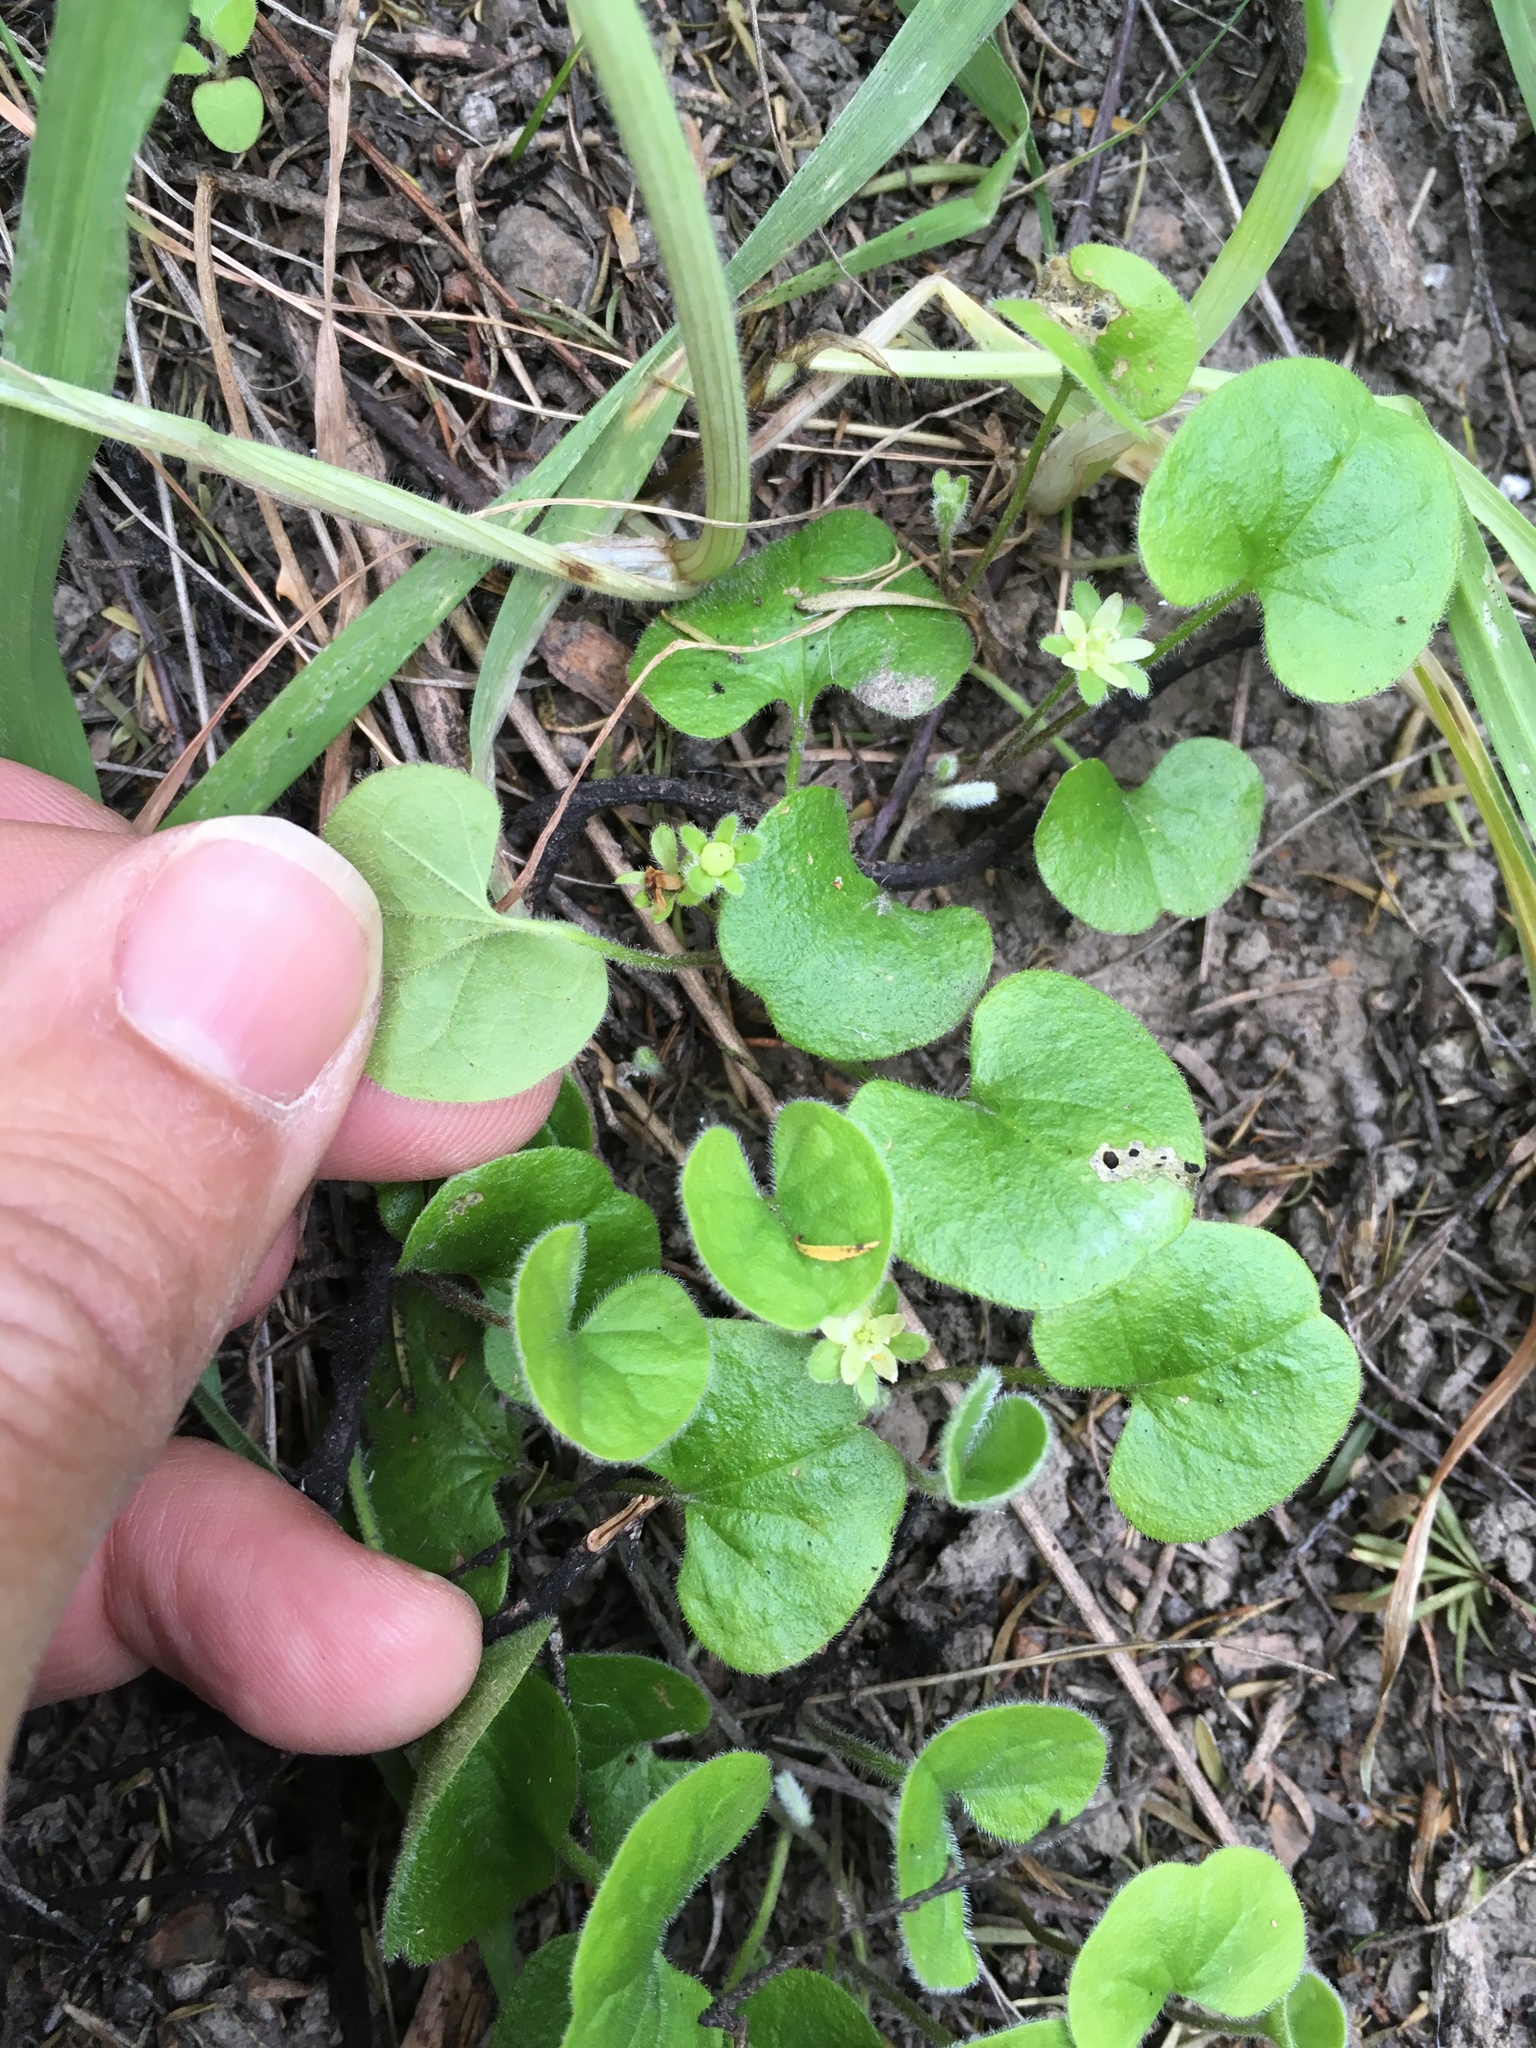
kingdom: Plantae
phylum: Tracheophyta
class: Magnoliopsida
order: Solanales
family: Convolvulaceae
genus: Dichondra
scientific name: Dichondra repens
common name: Kidneyweed
